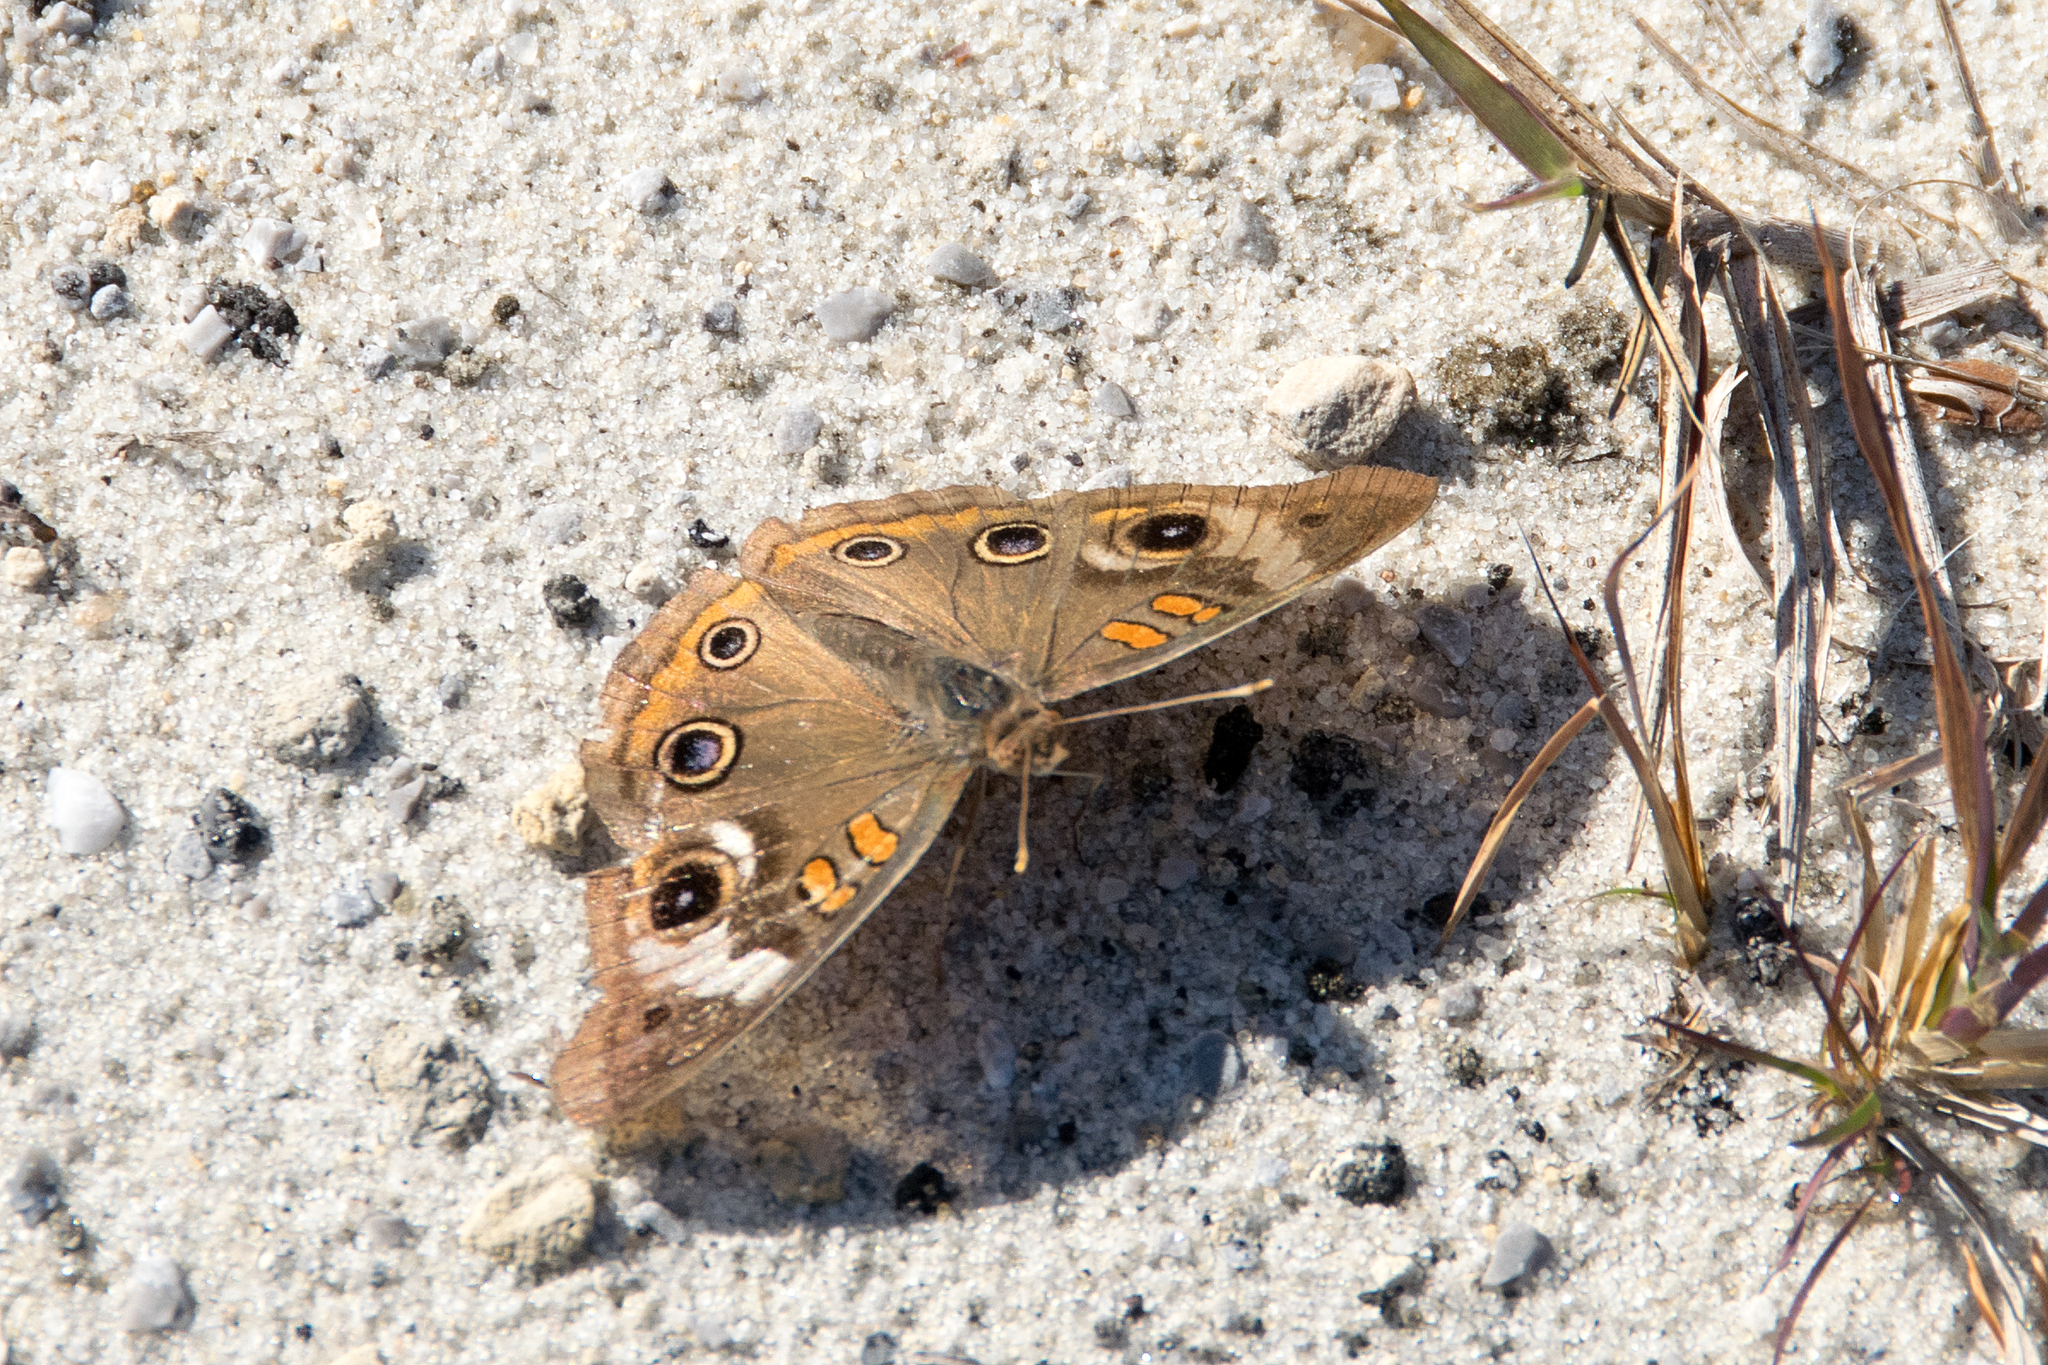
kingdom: Animalia
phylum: Arthropoda
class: Insecta
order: Lepidoptera
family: Nymphalidae
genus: Junonia
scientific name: Junonia coenia
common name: Common buckeye
